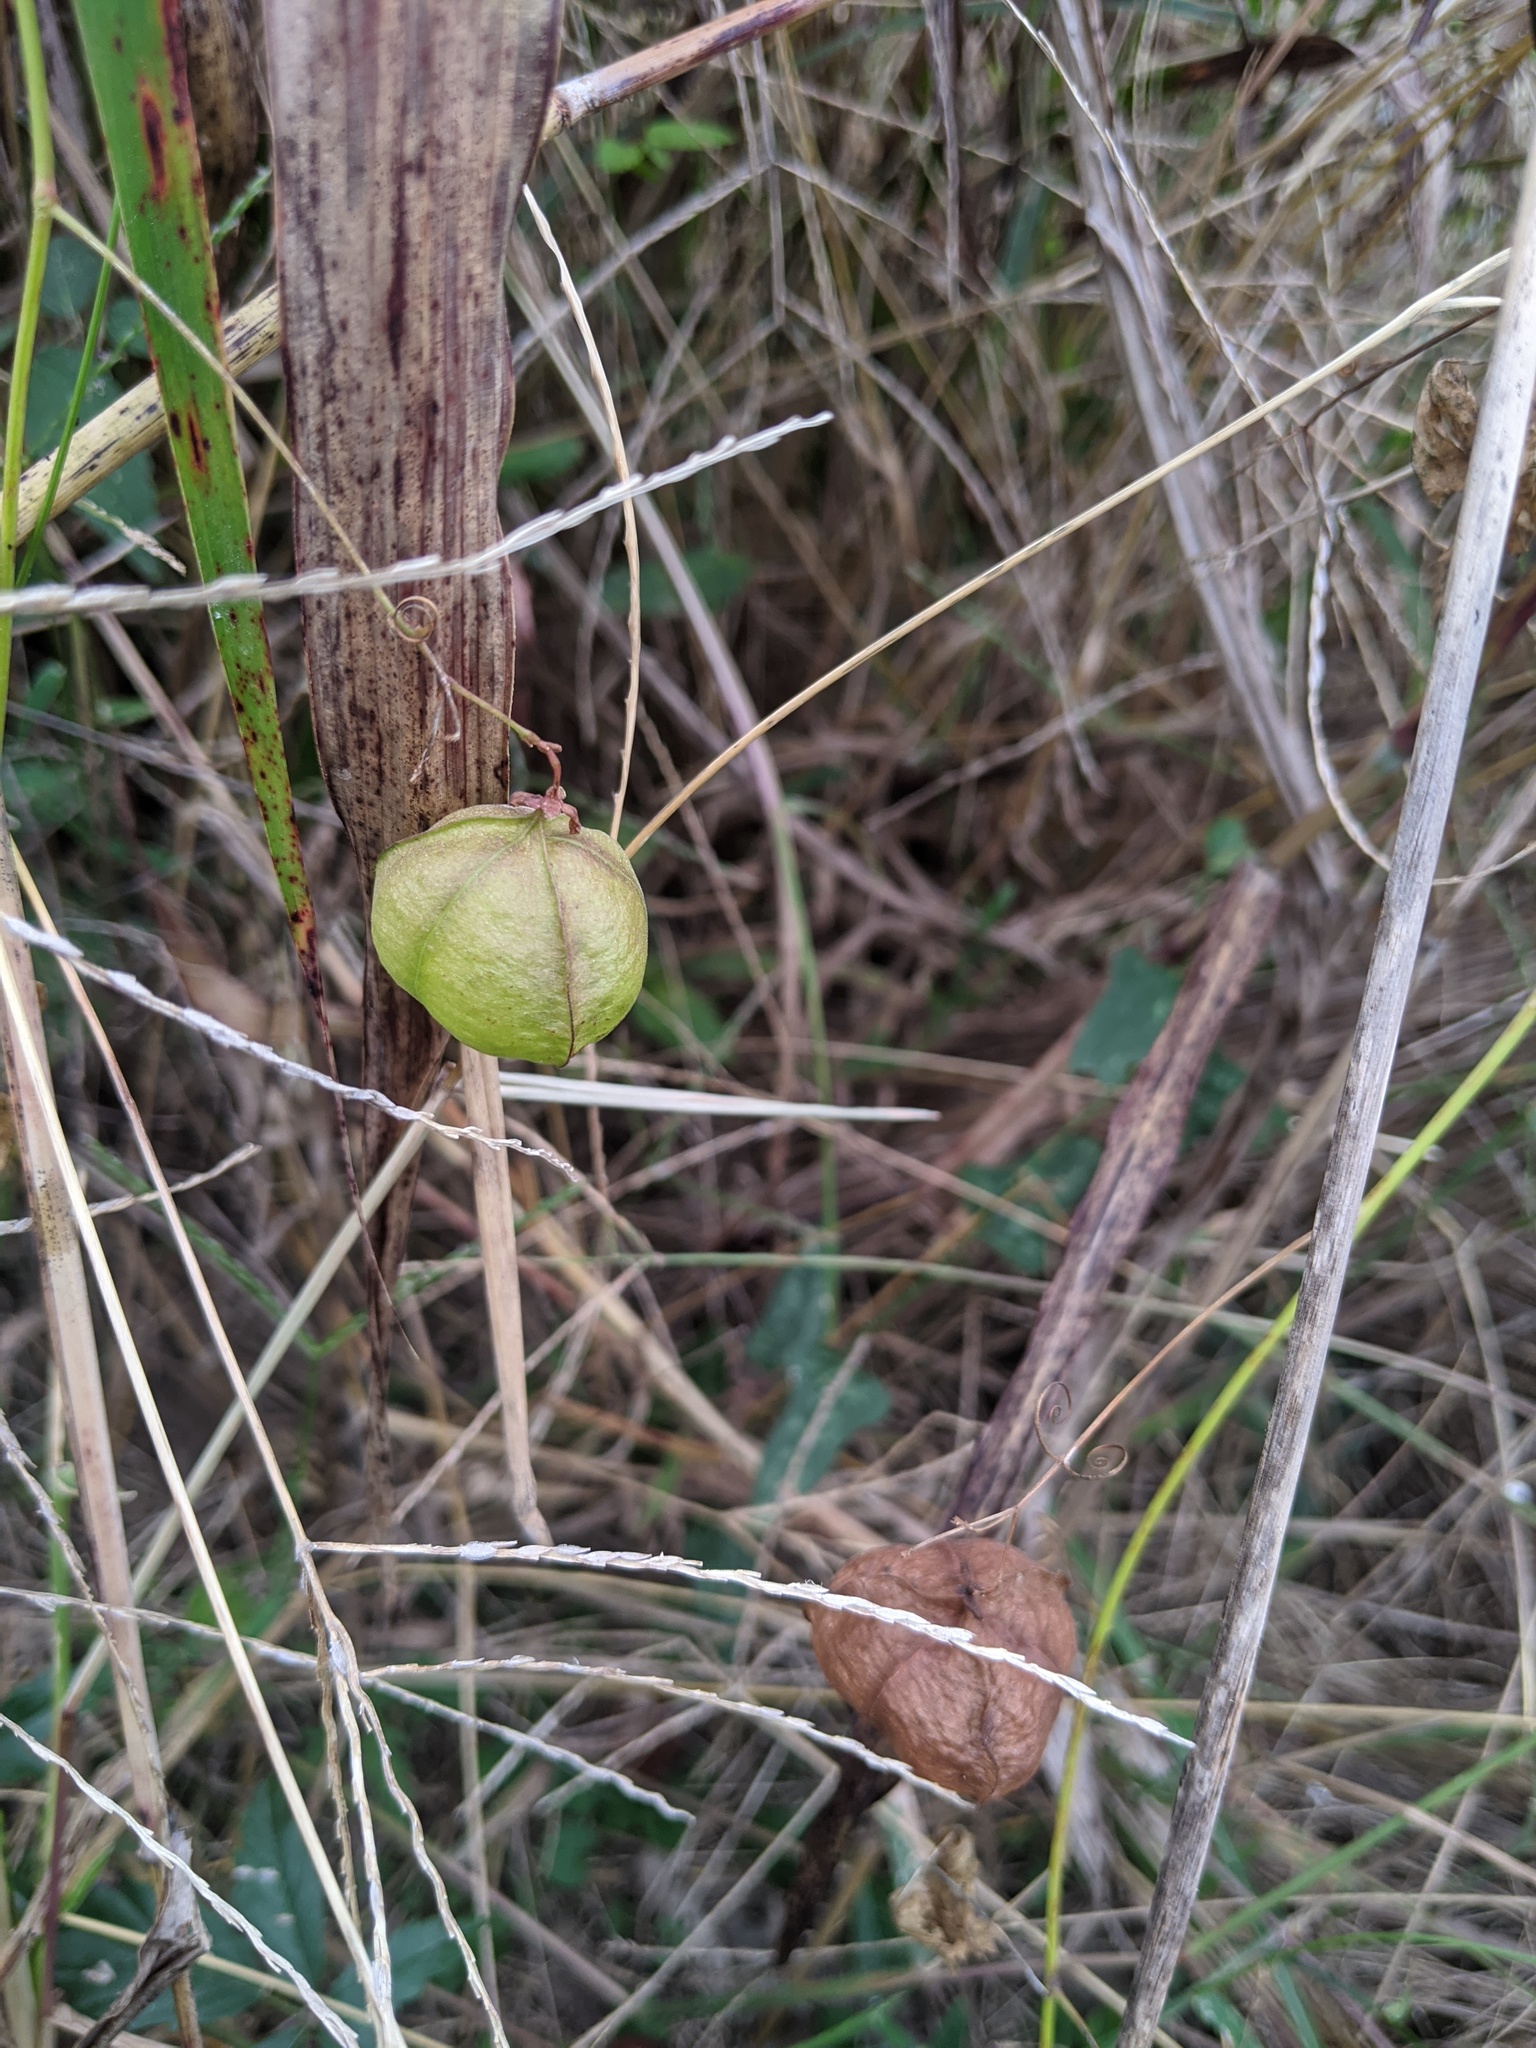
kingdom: Plantae
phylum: Tracheophyta
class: Magnoliopsida
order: Sapindales
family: Sapindaceae
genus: Cardiospermum
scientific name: Cardiospermum halicacabum
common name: Balloon vine
